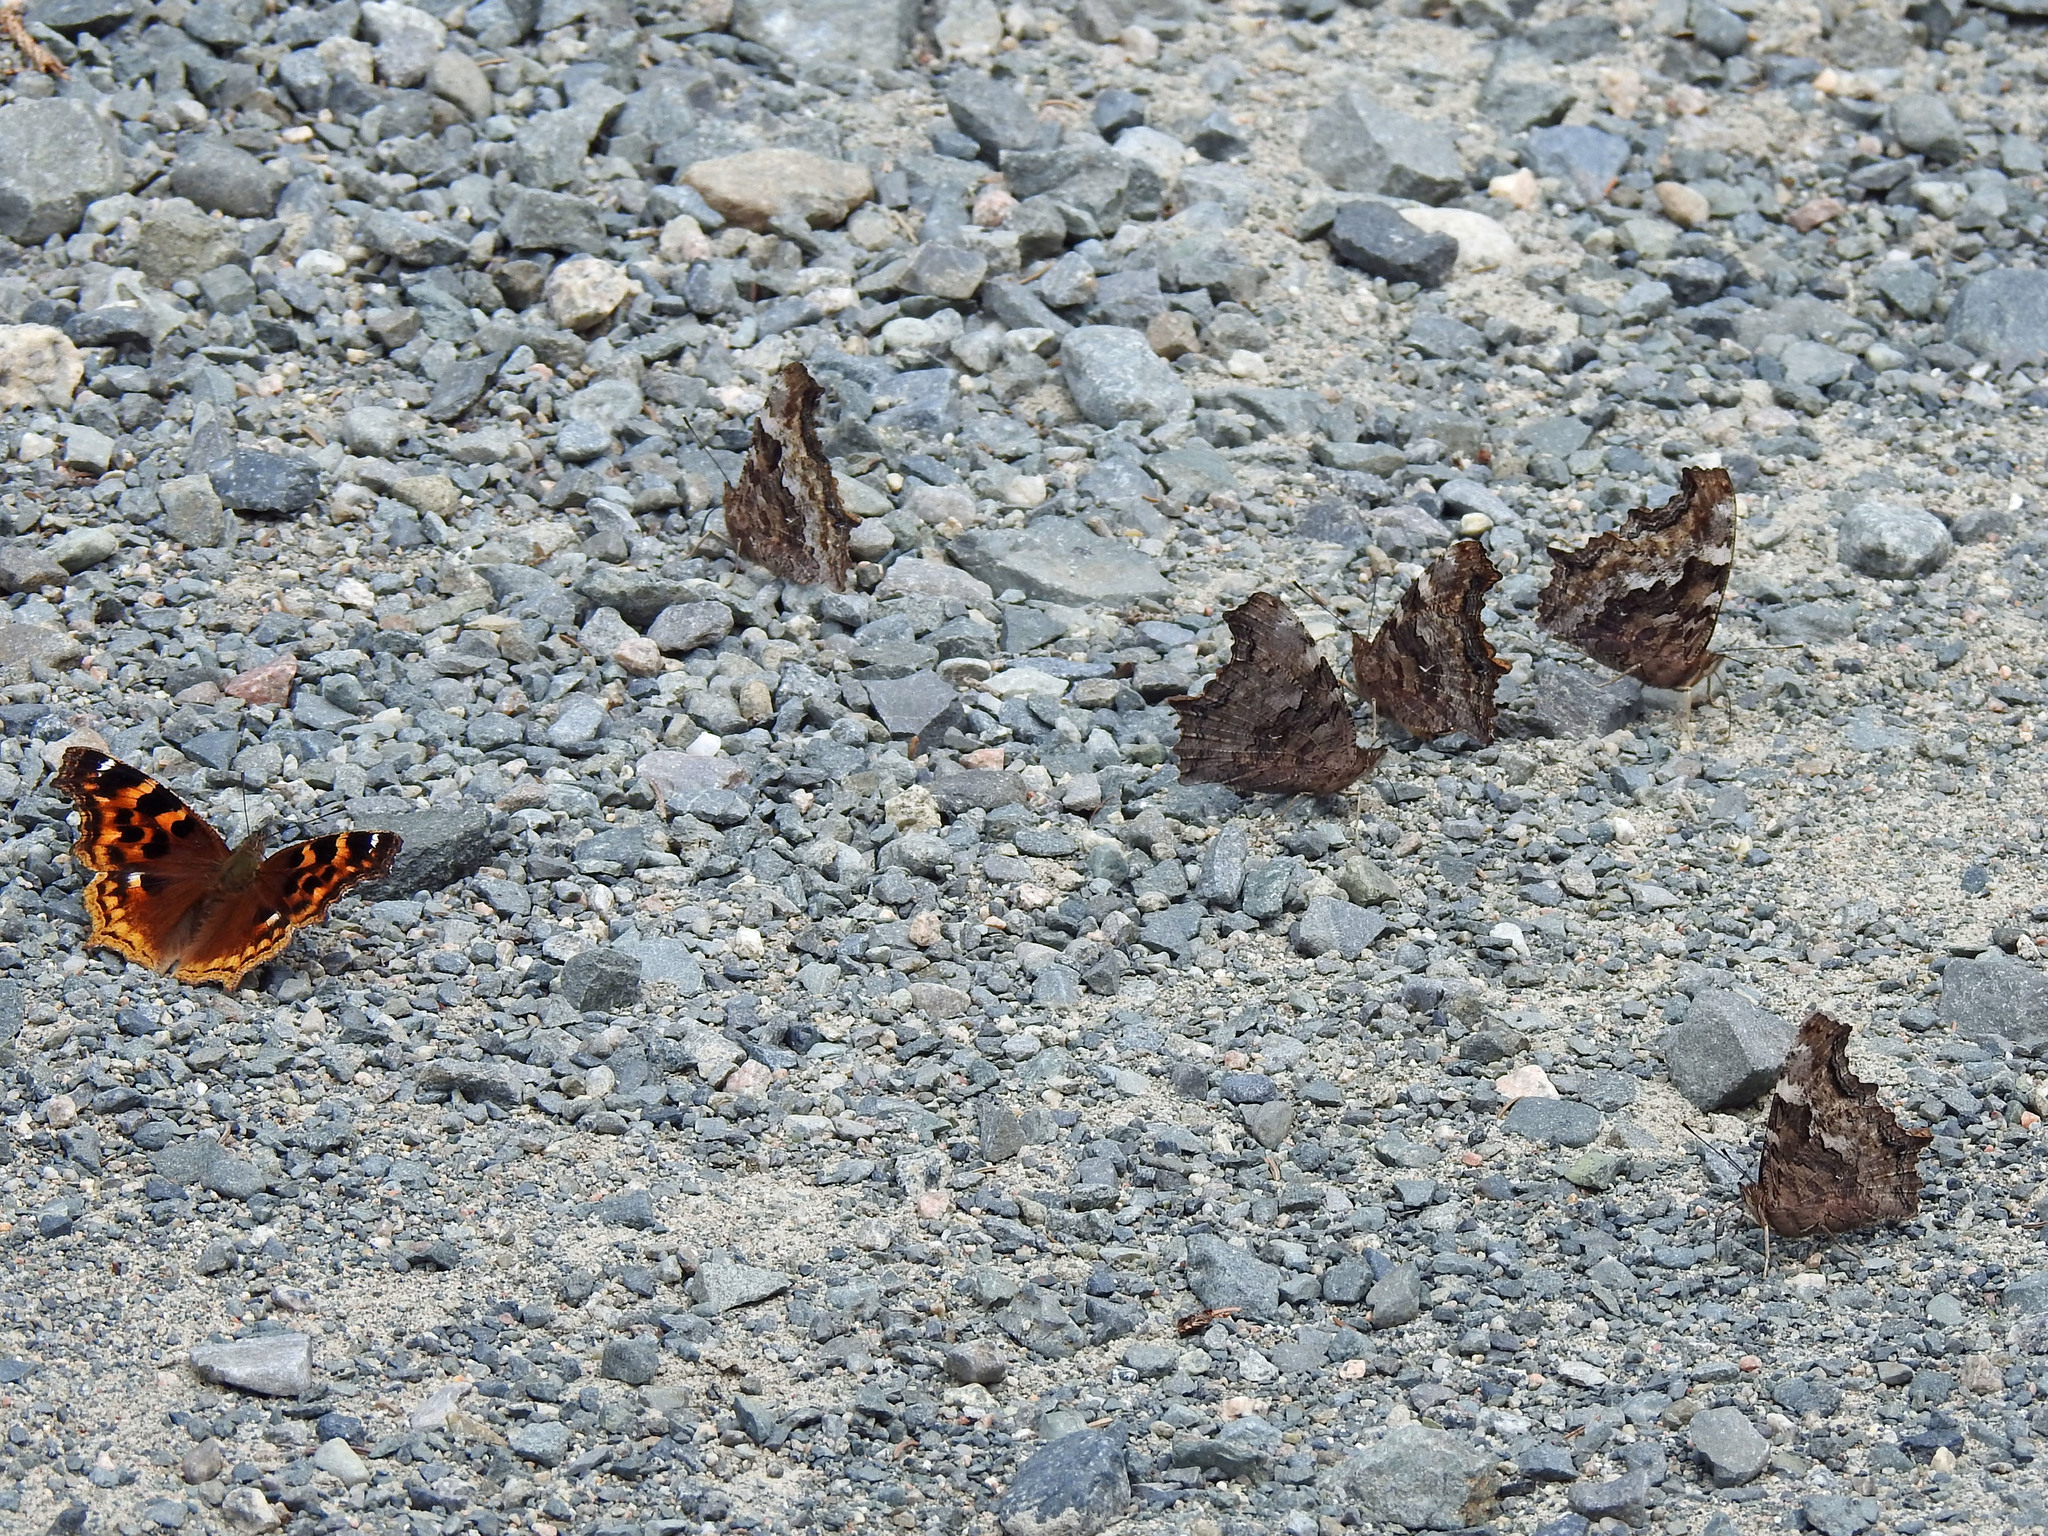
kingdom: Animalia
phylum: Arthropoda
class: Insecta
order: Lepidoptera
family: Nymphalidae
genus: Polygonia
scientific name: Polygonia vaualbum
